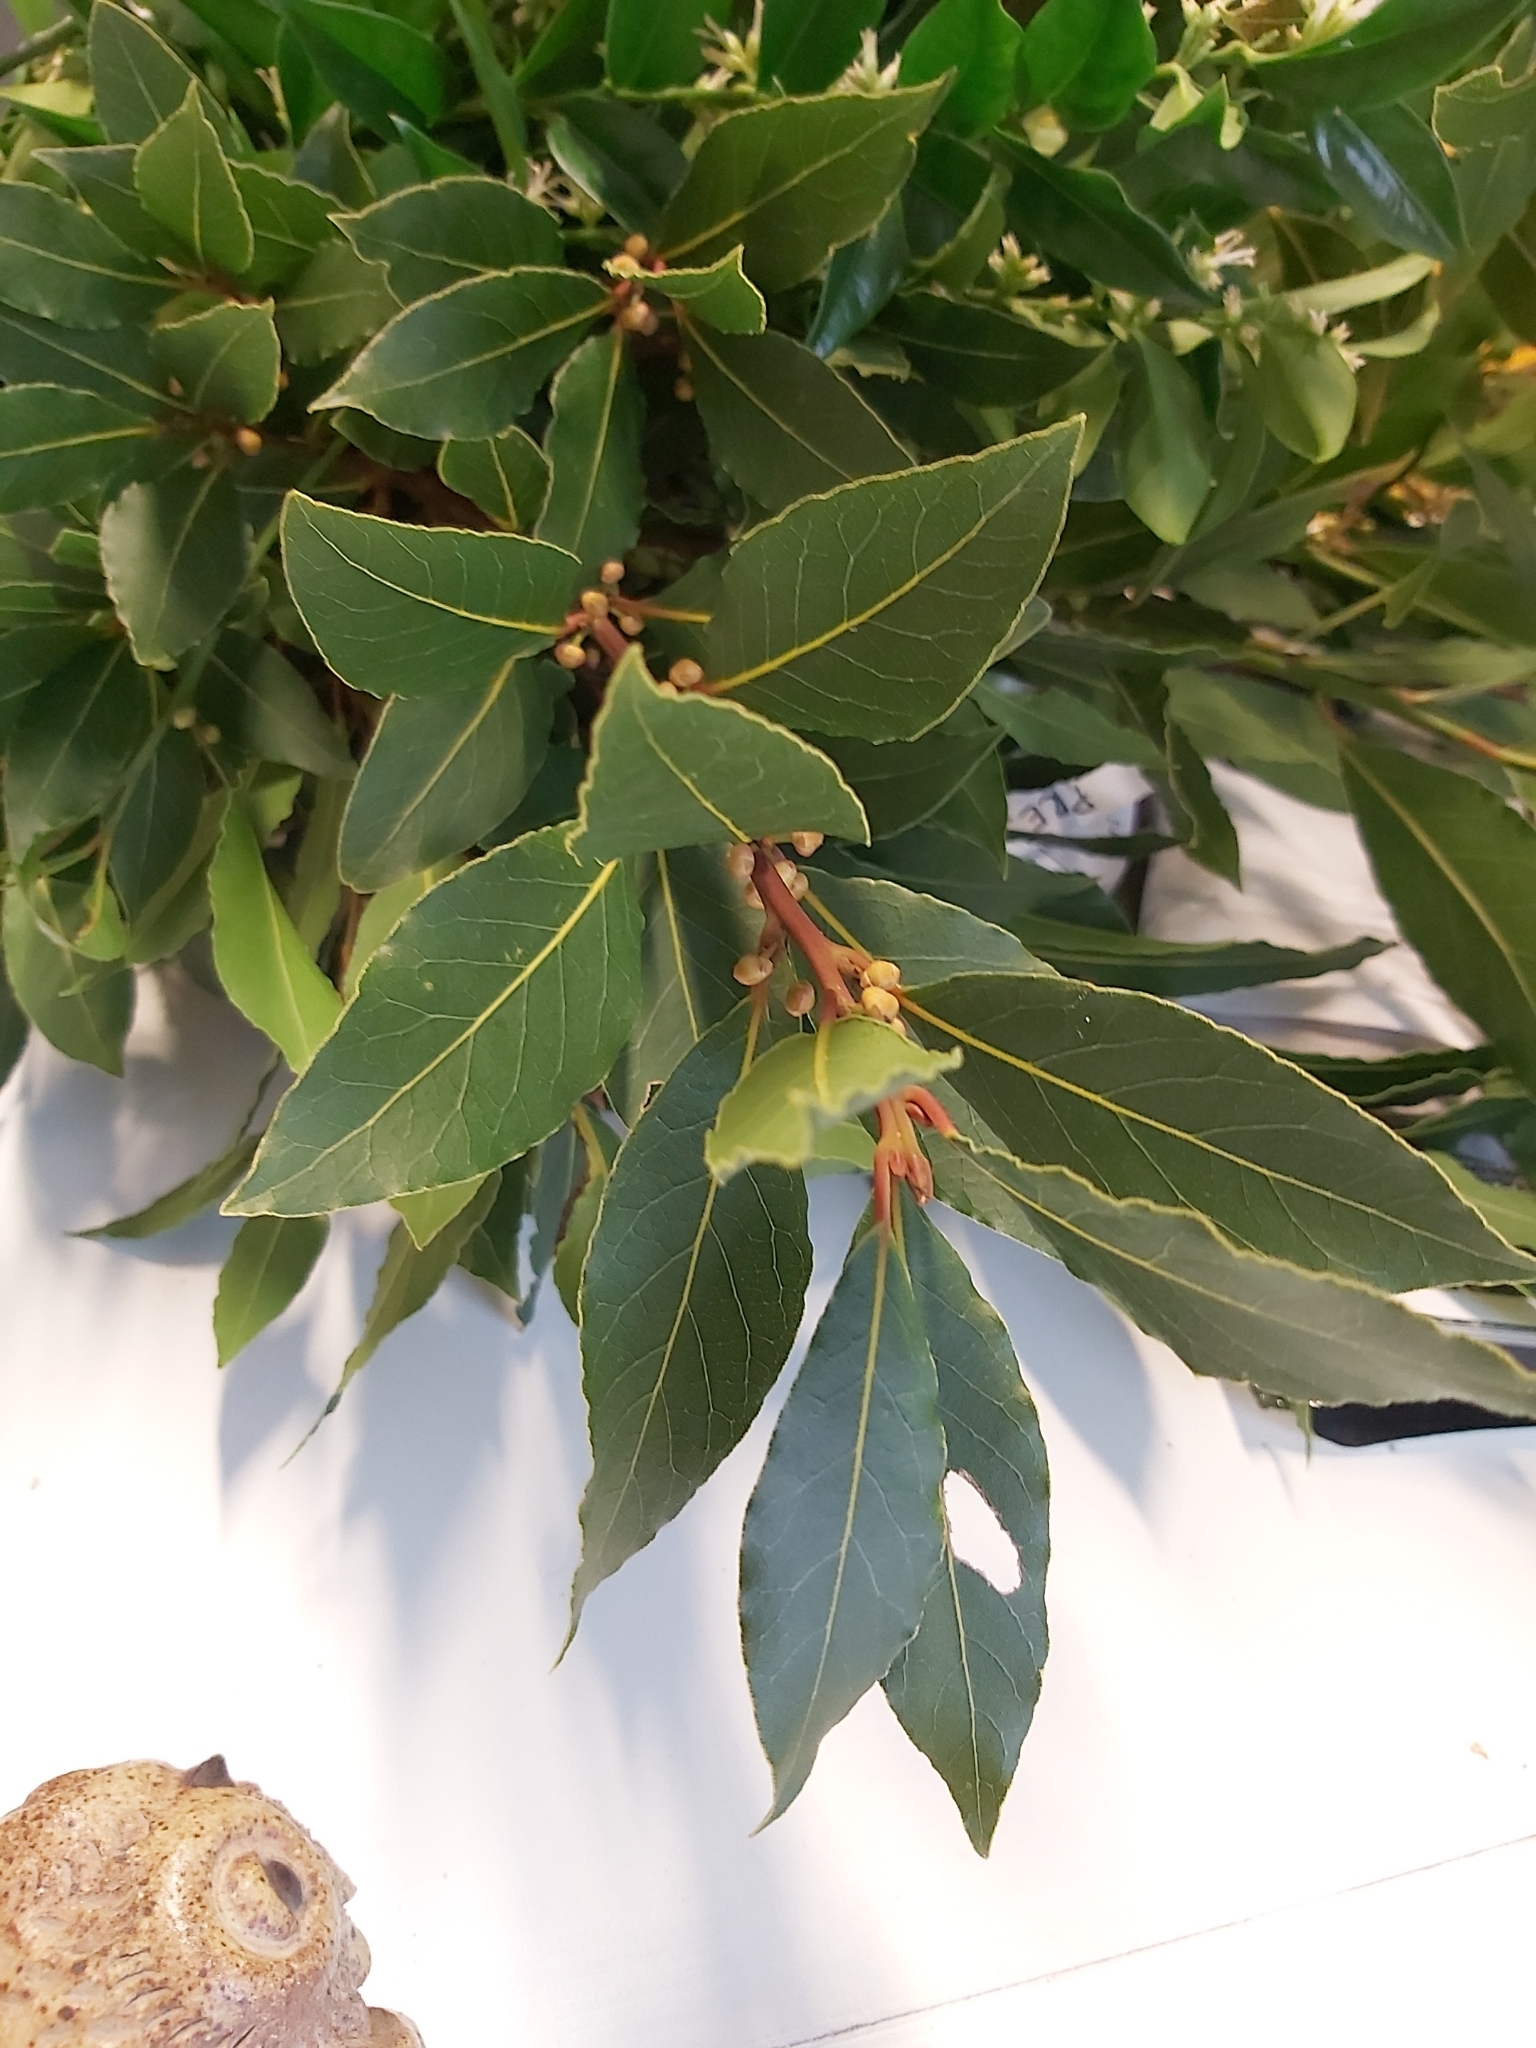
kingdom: Plantae
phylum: Tracheophyta
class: Magnoliopsida
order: Laurales
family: Lauraceae
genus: Laurus
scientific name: Laurus nobilis
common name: Bay
